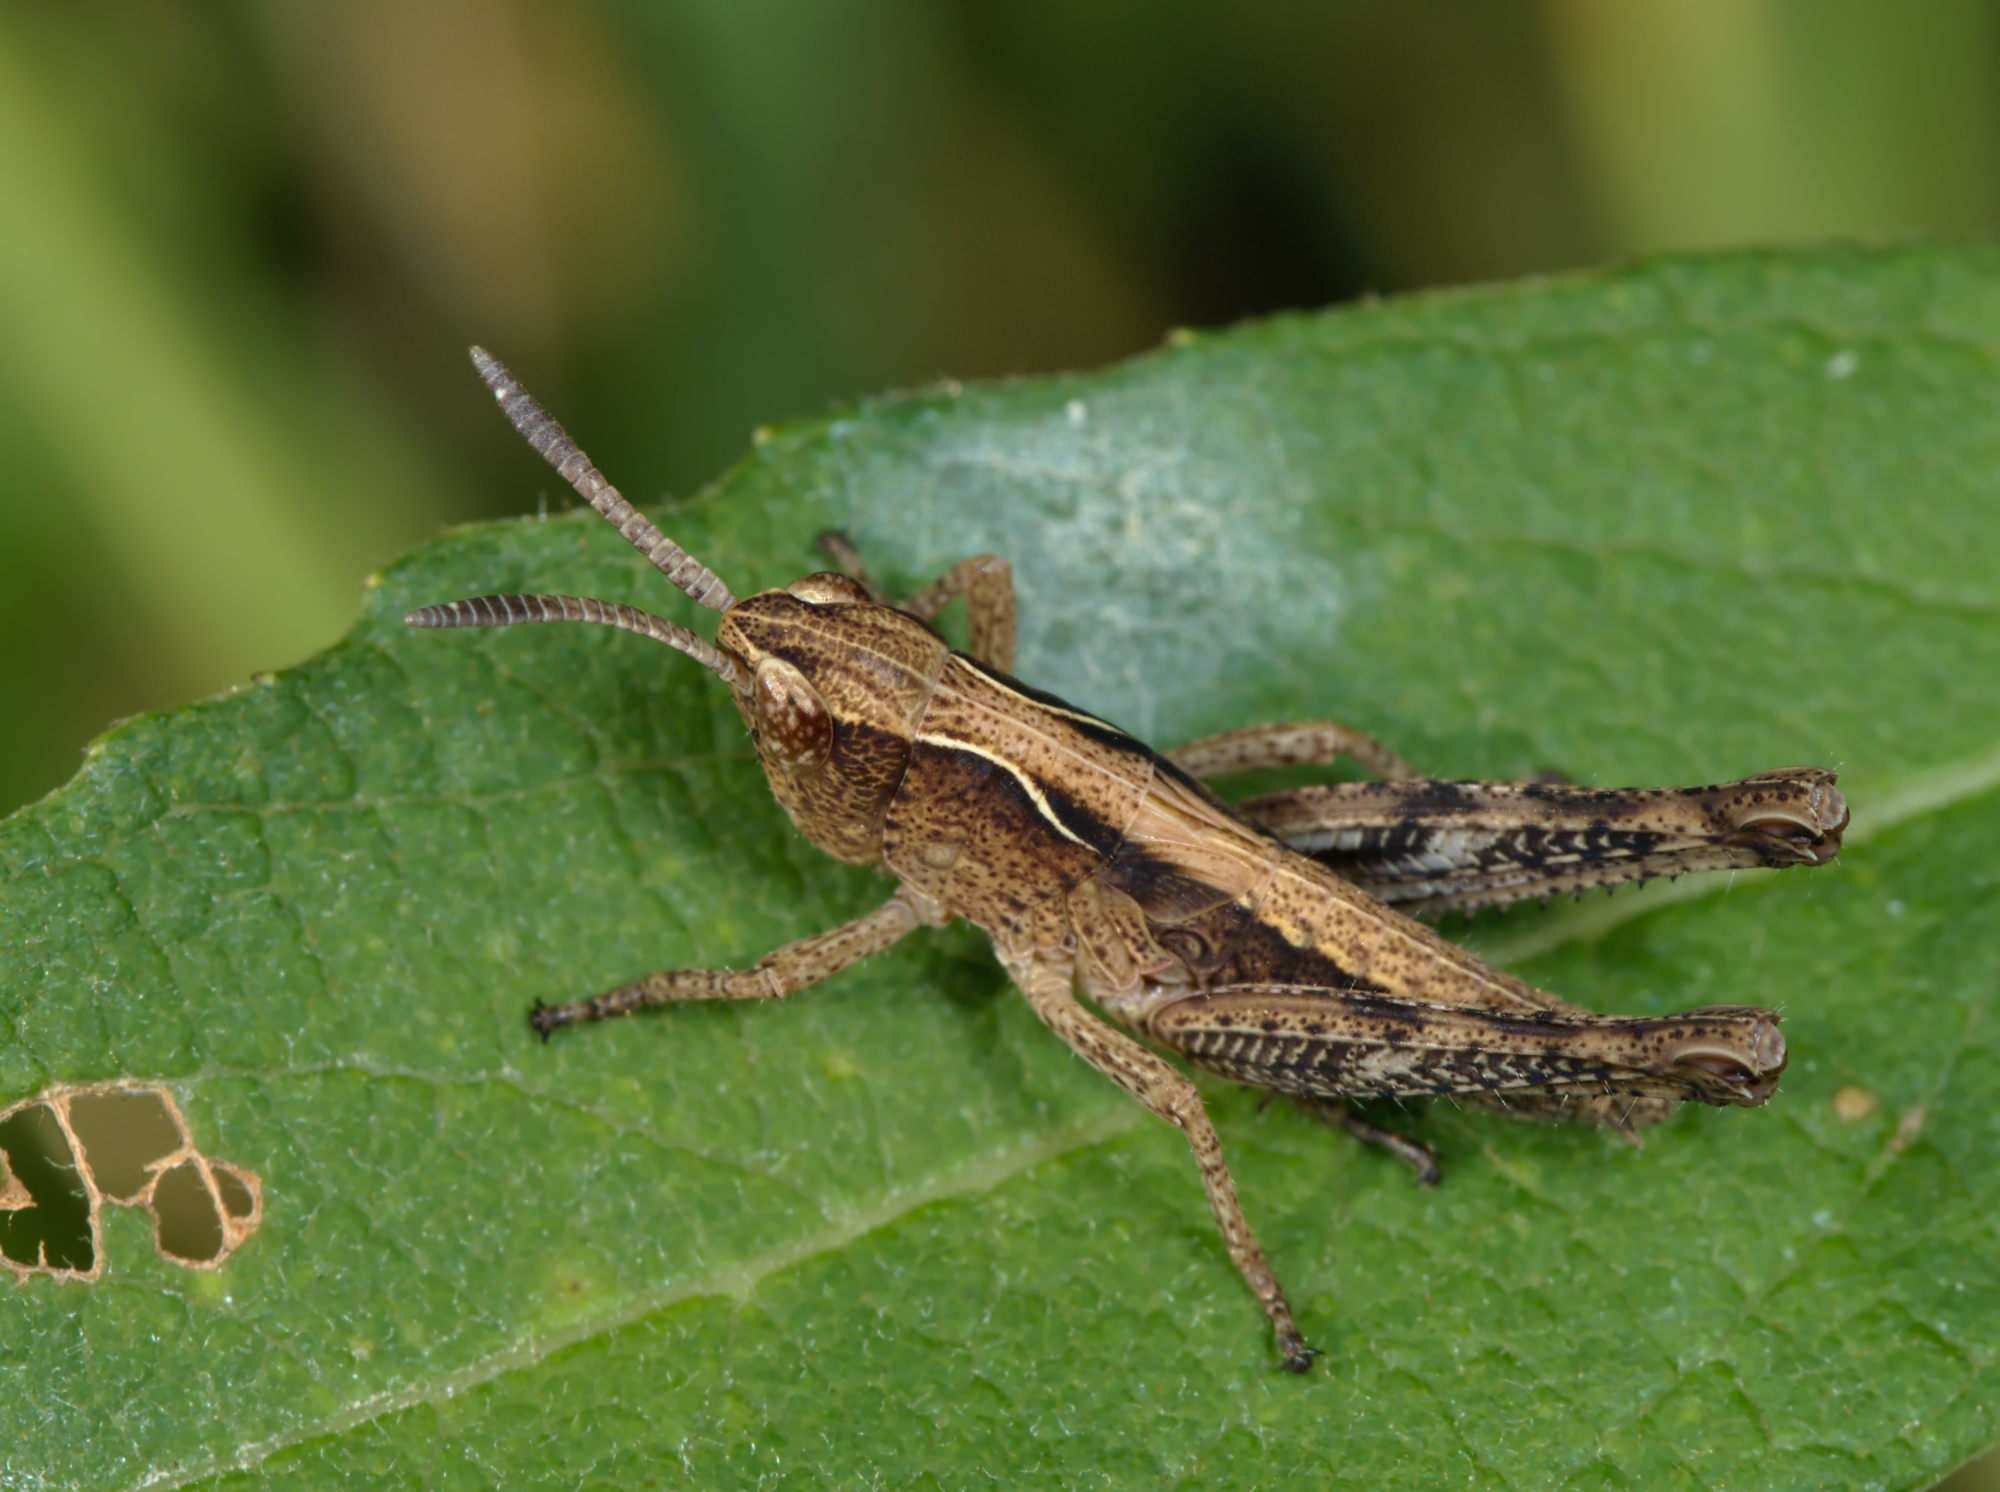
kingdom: Animalia
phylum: Arthropoda
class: Insecta
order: Orthoptera
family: Acrididae
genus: Gomphocerippus
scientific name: Gomphocerippus rufus
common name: Rufous grasshopper
